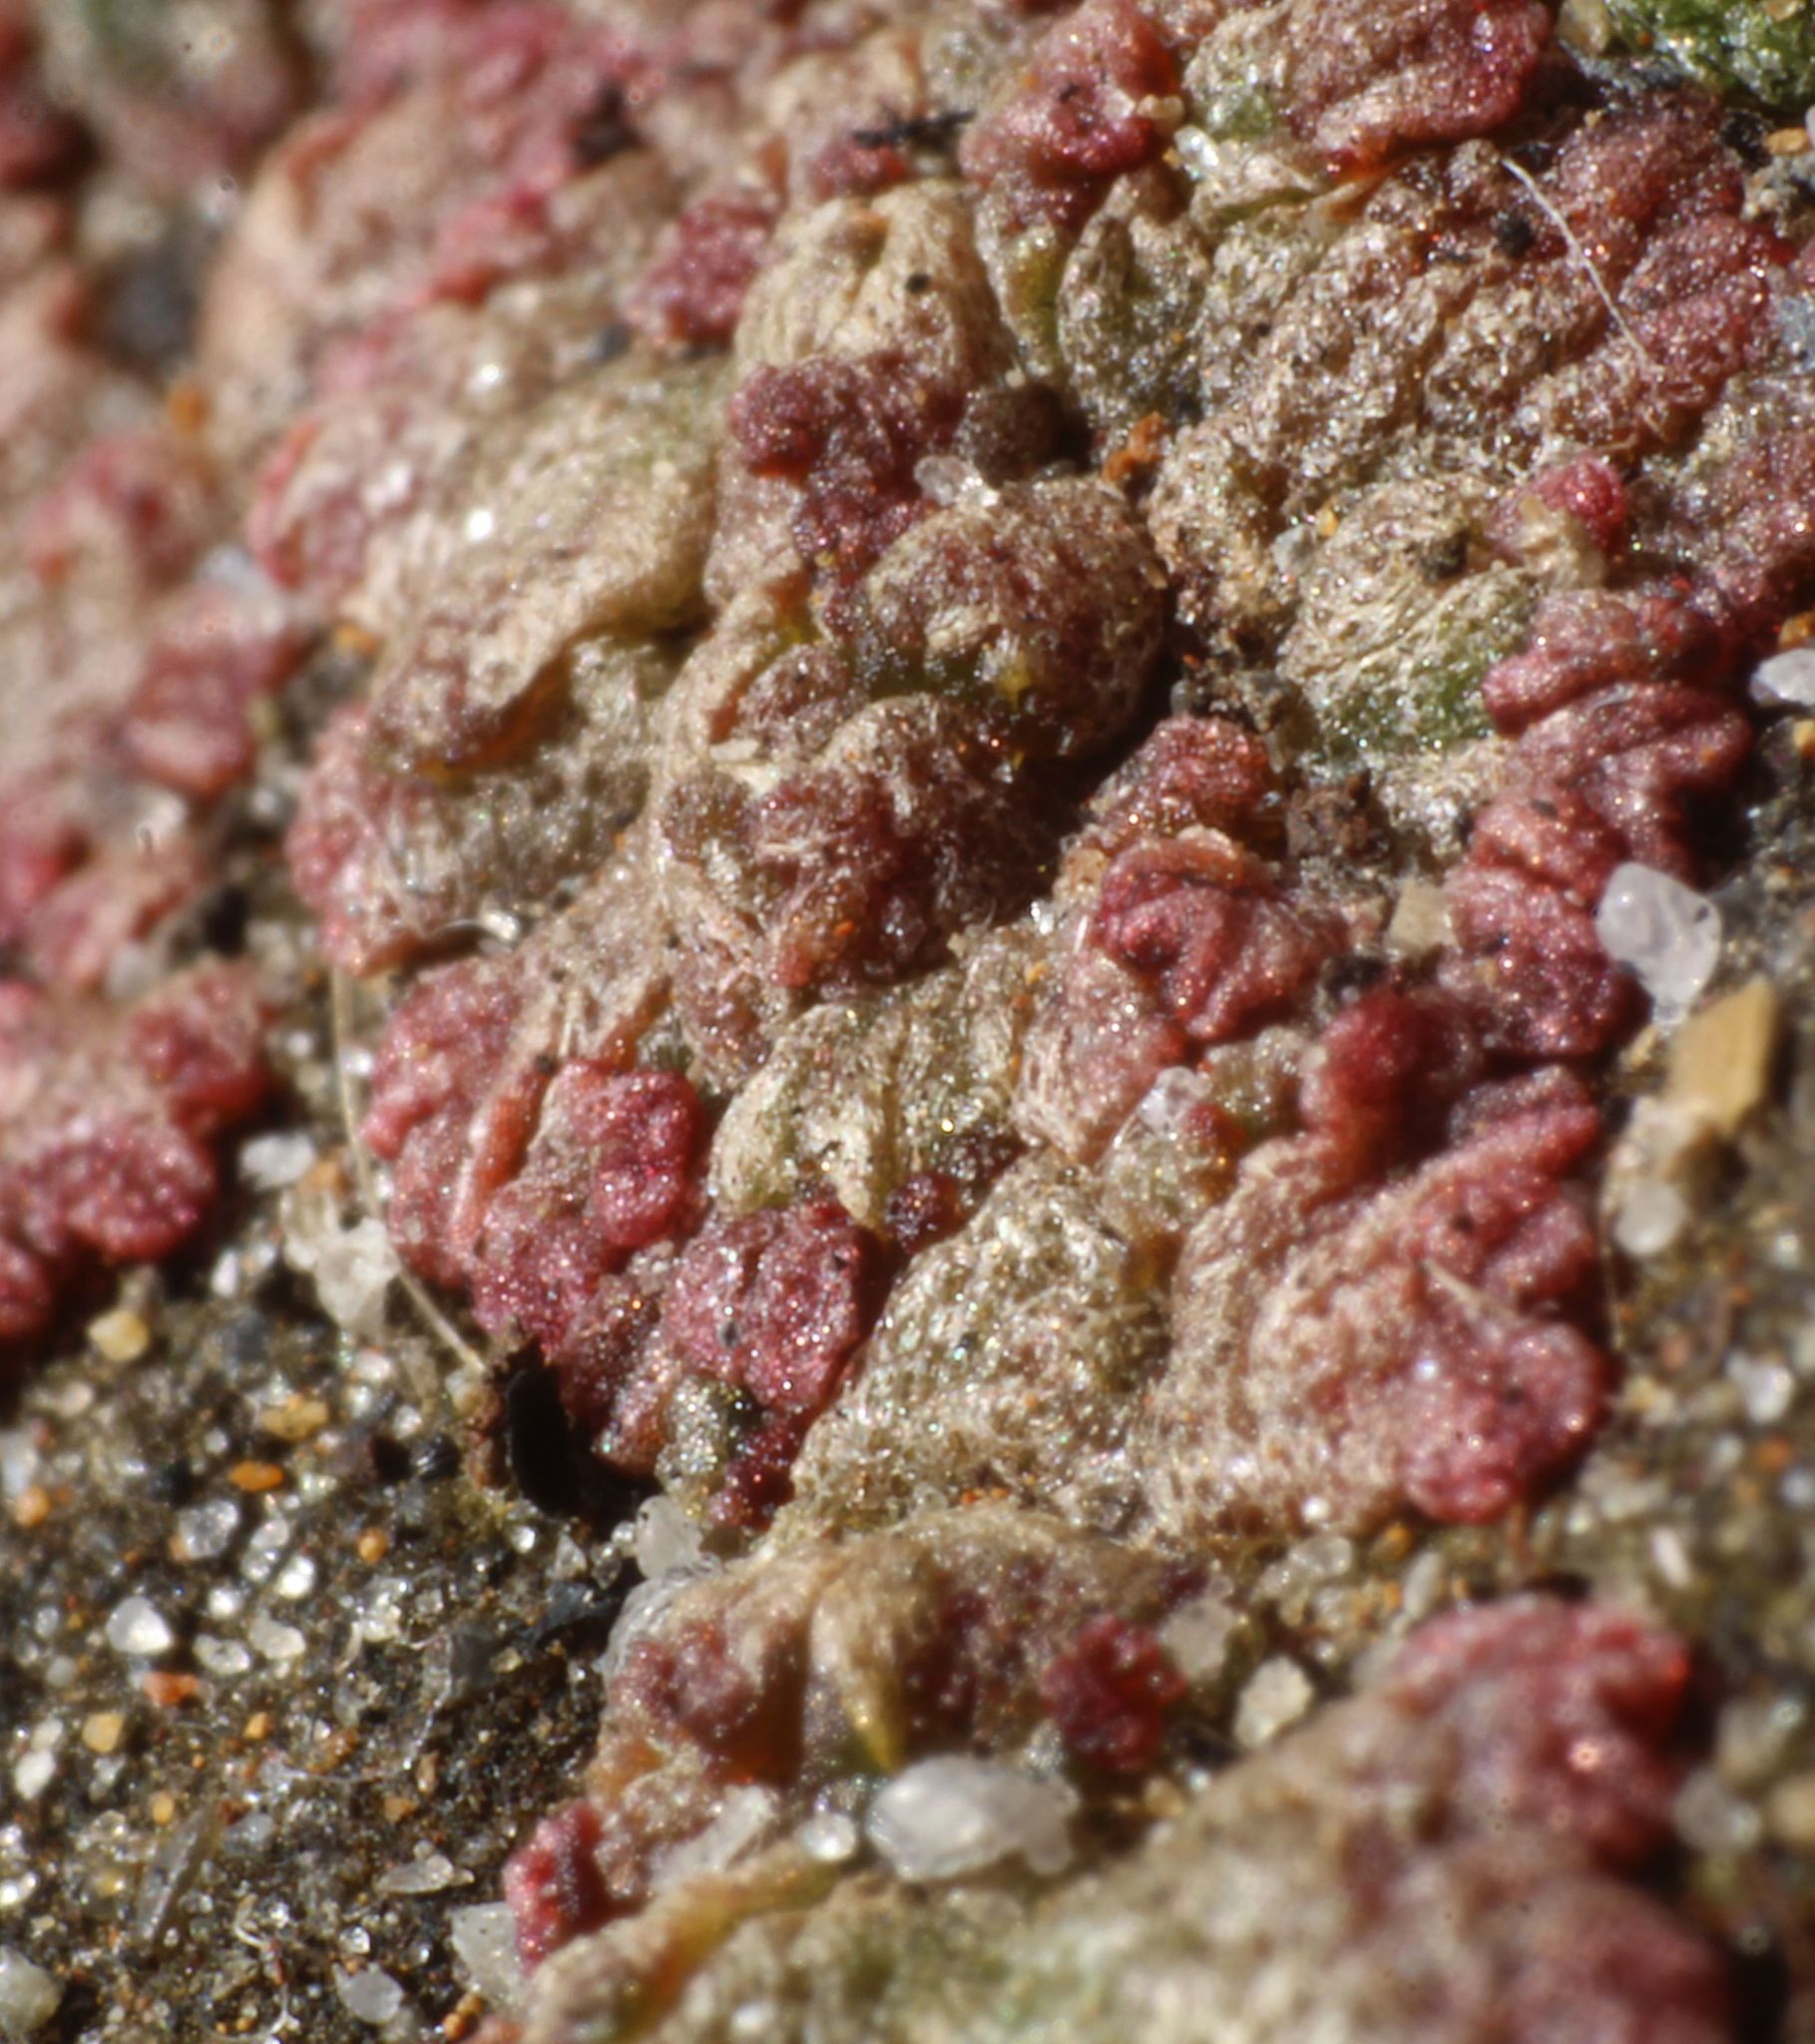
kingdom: Plantae
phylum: Marchantiophyta
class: Marchantiopsida
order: Marchantiales
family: Ricciaceae
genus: Riccia
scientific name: Riccia cavernosa
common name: Cavernous crystalwort
